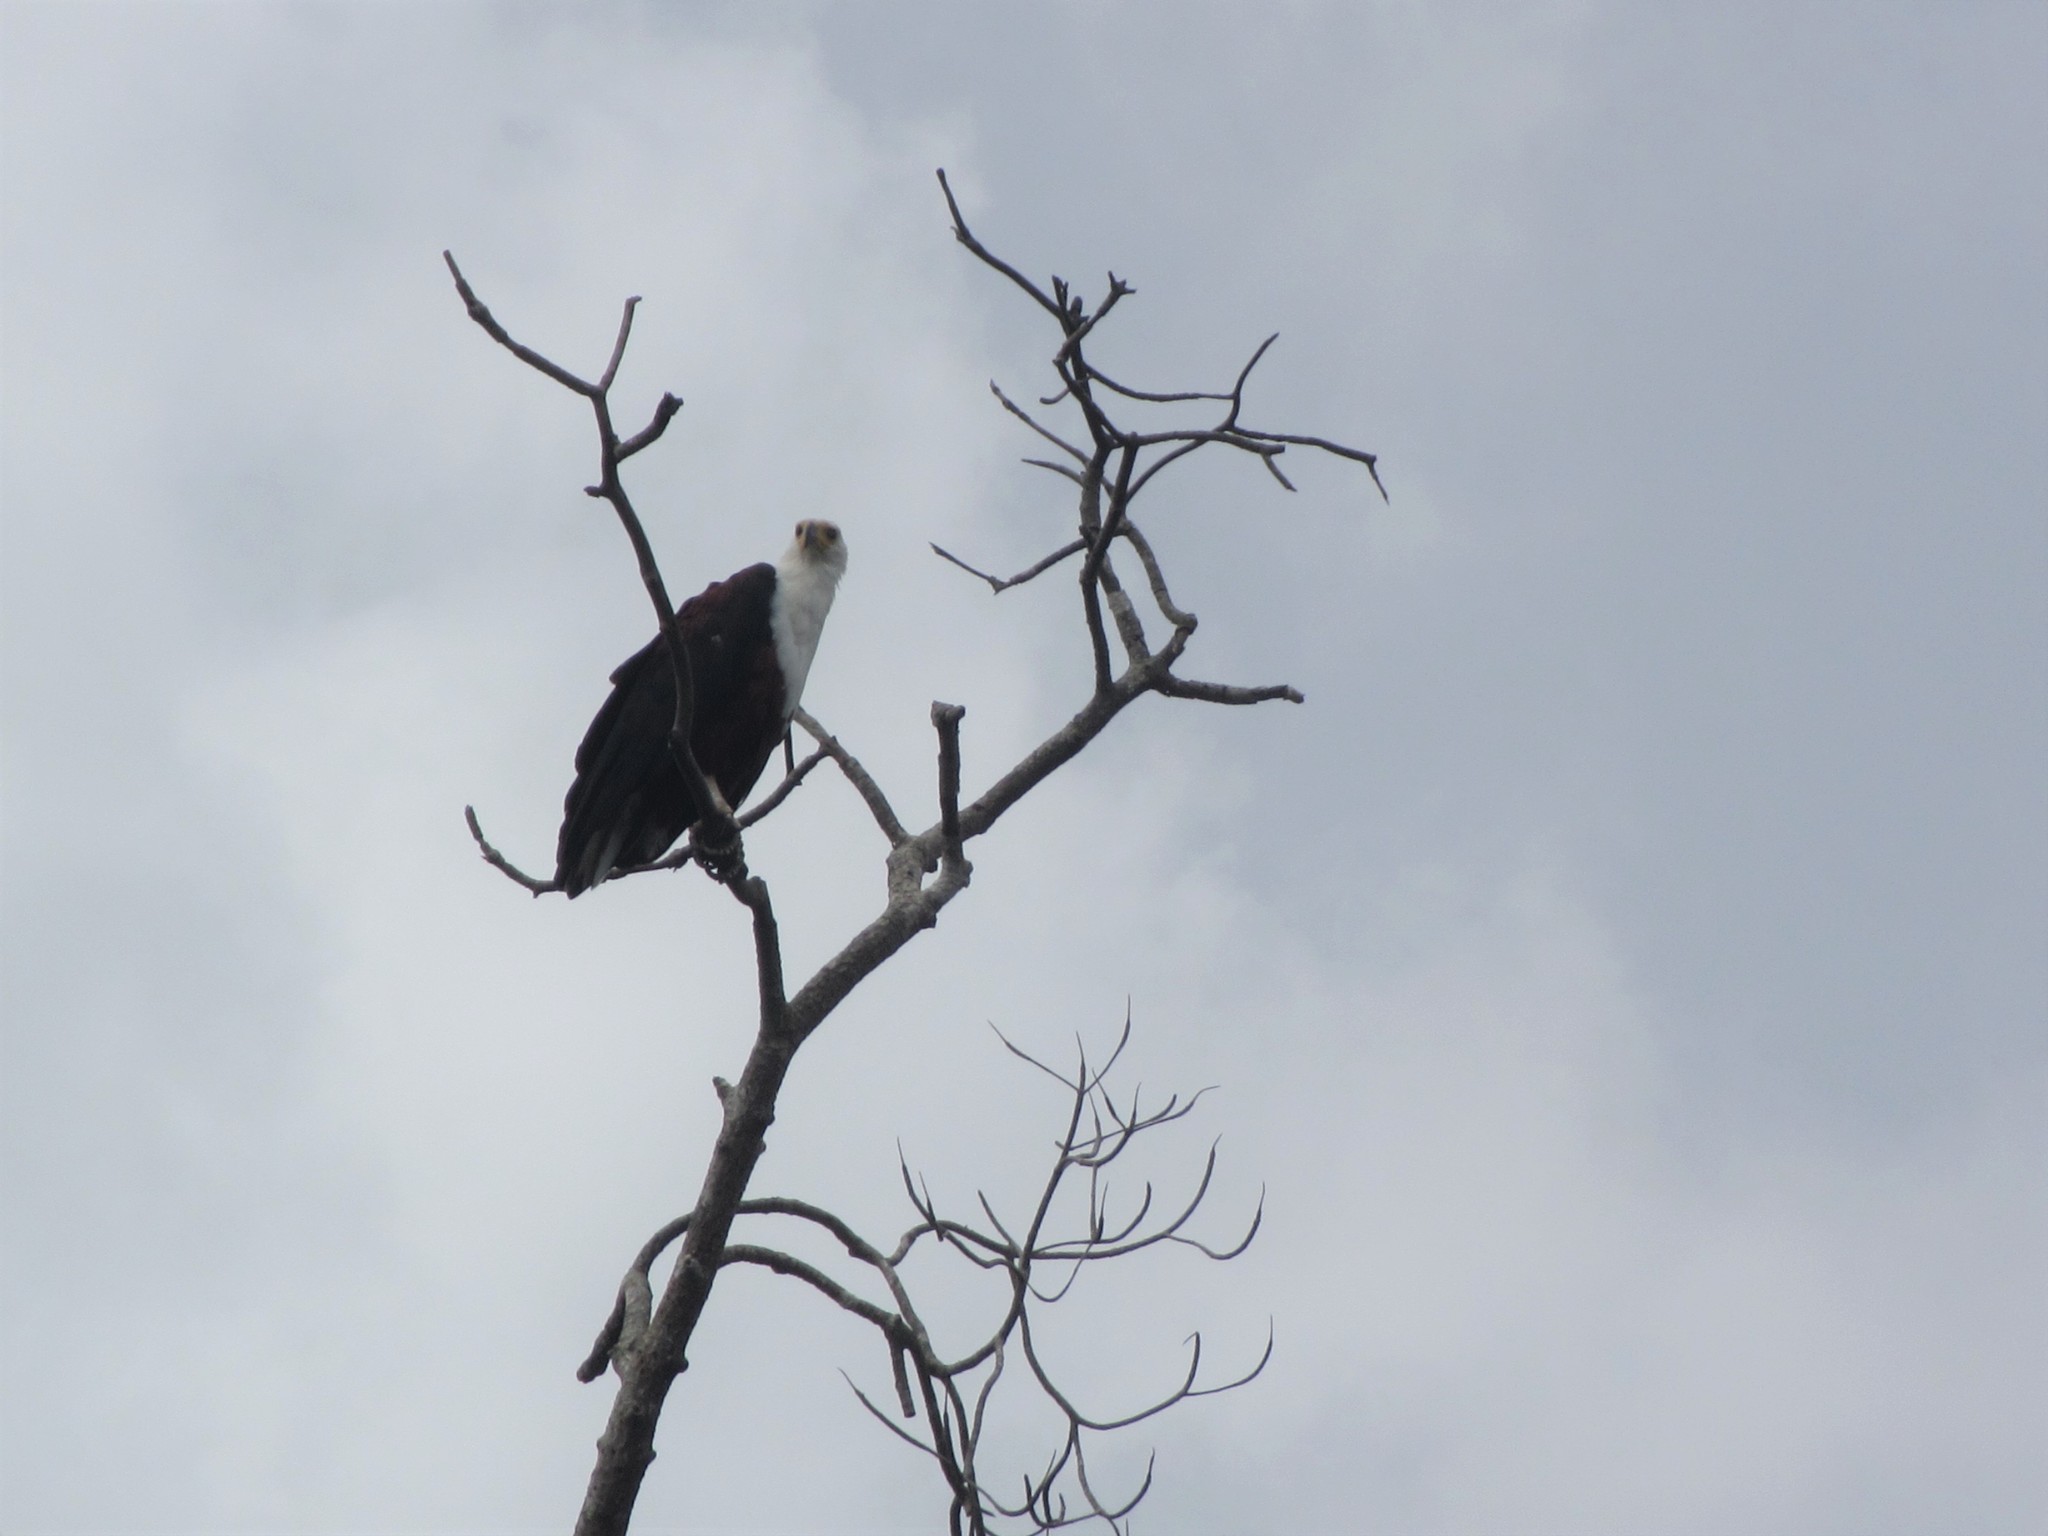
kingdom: Animalia
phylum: Chordata
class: Aves
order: Accipitriformes
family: Accipitridae
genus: Haliaeetus
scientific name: Haliaeetus vocifer
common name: African fish eagle
